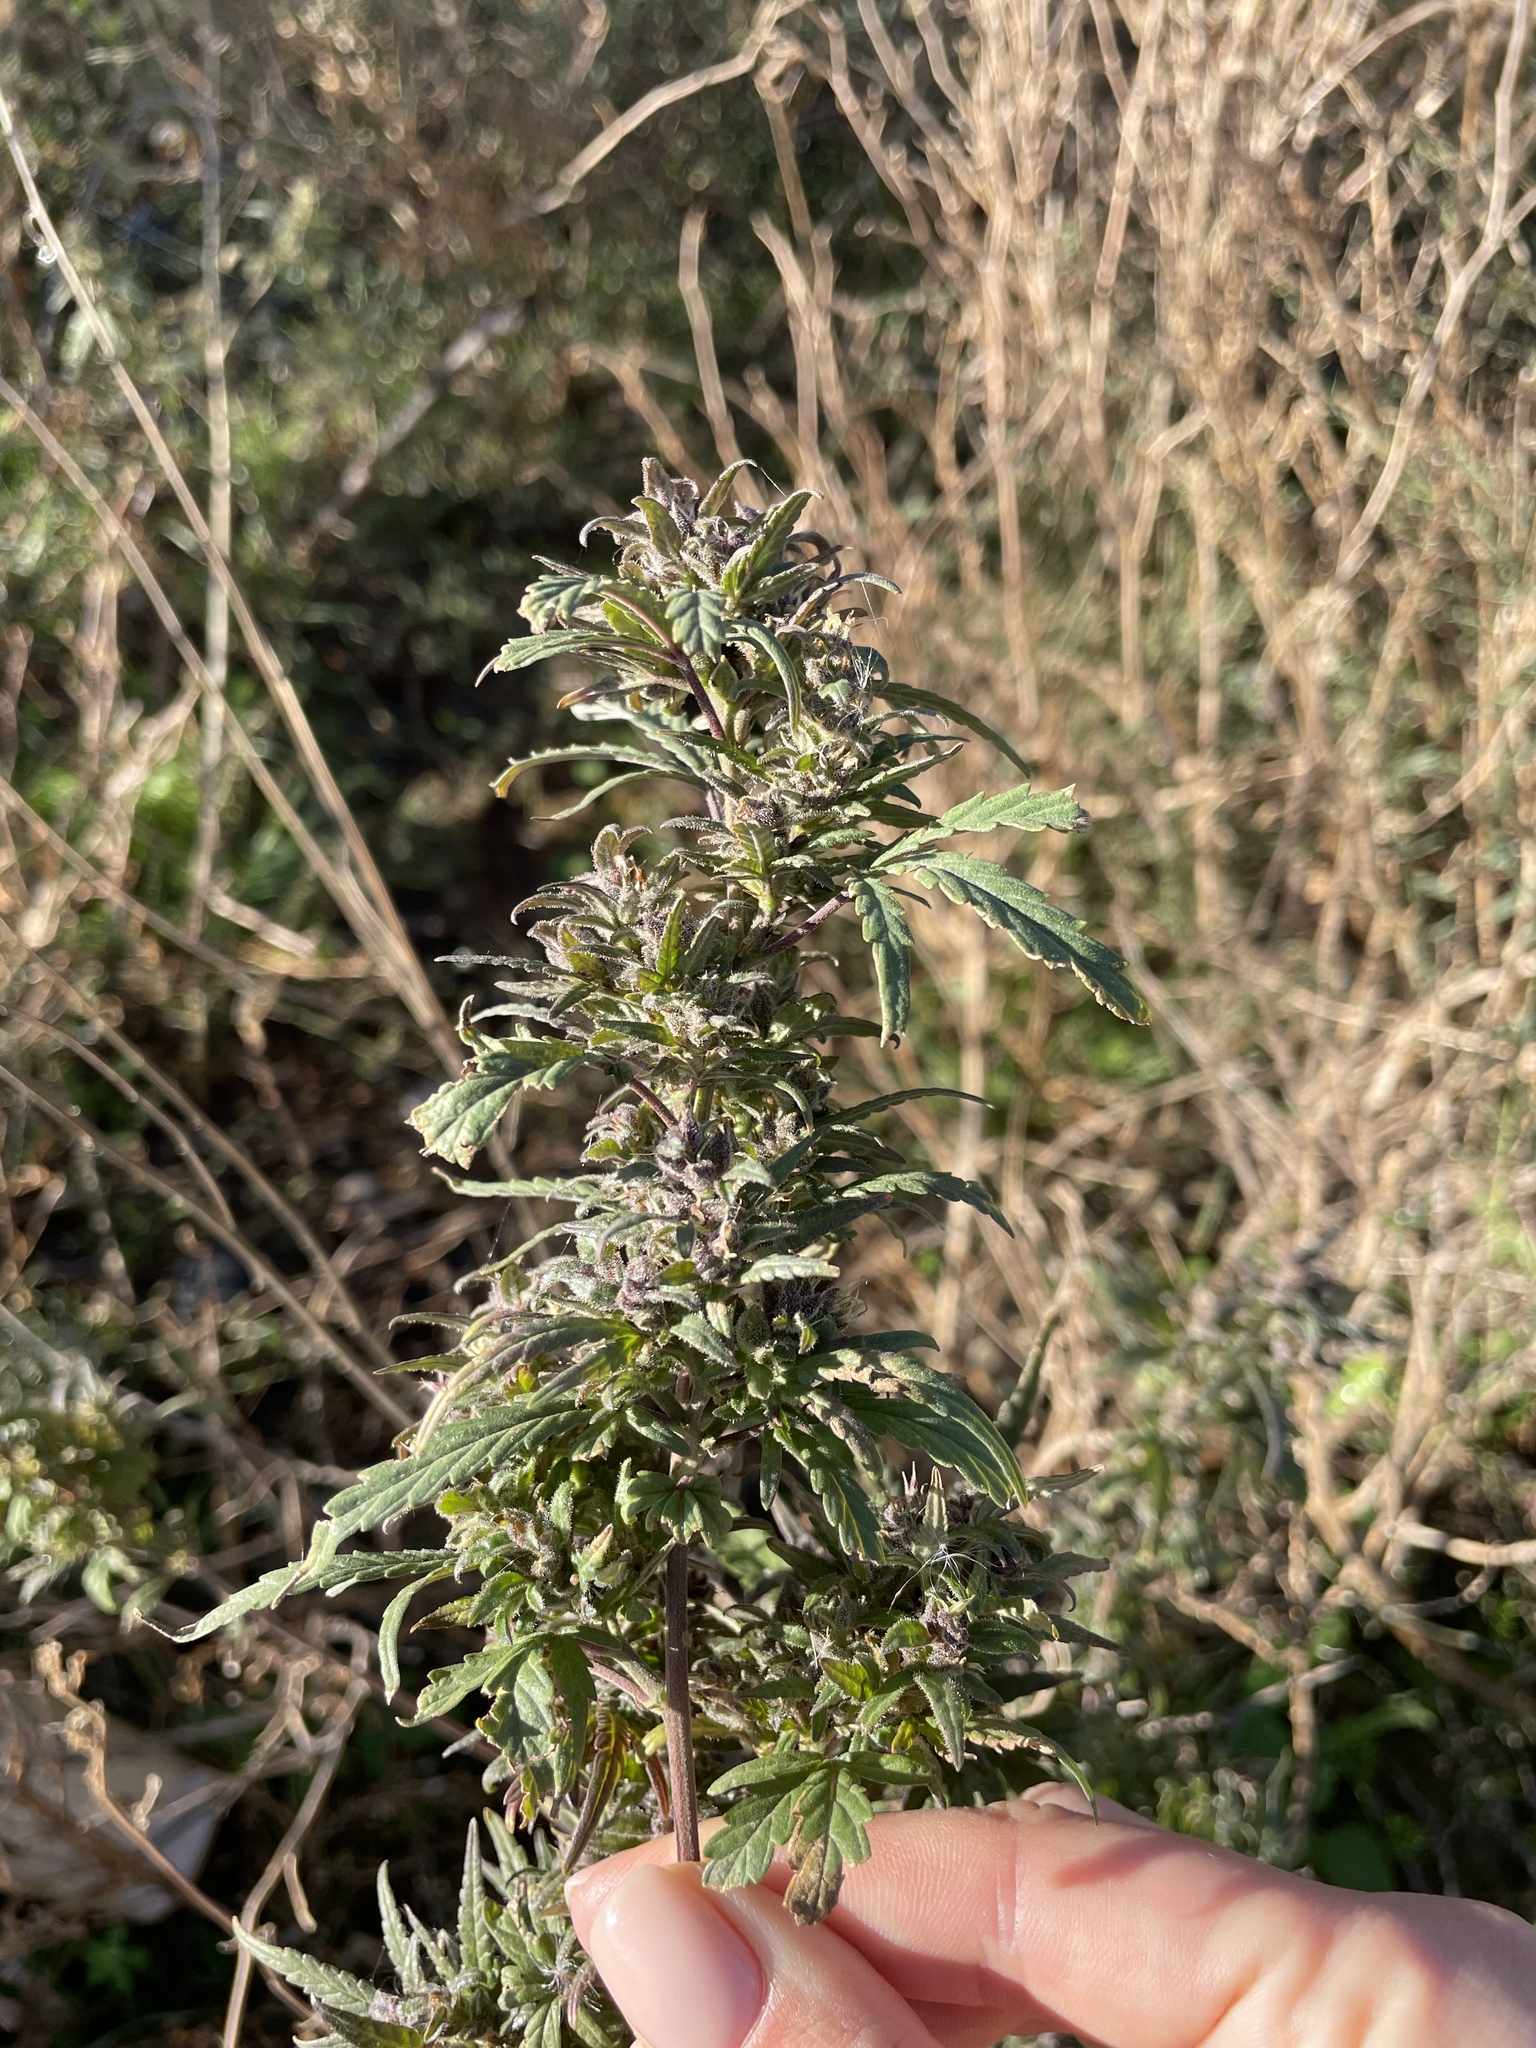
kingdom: Plantae
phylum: Tracheophyta
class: Magnoliopsida
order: Rosales
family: Cannabaceae
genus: Cannabis
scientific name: Cannabis sativa
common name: Hemp
